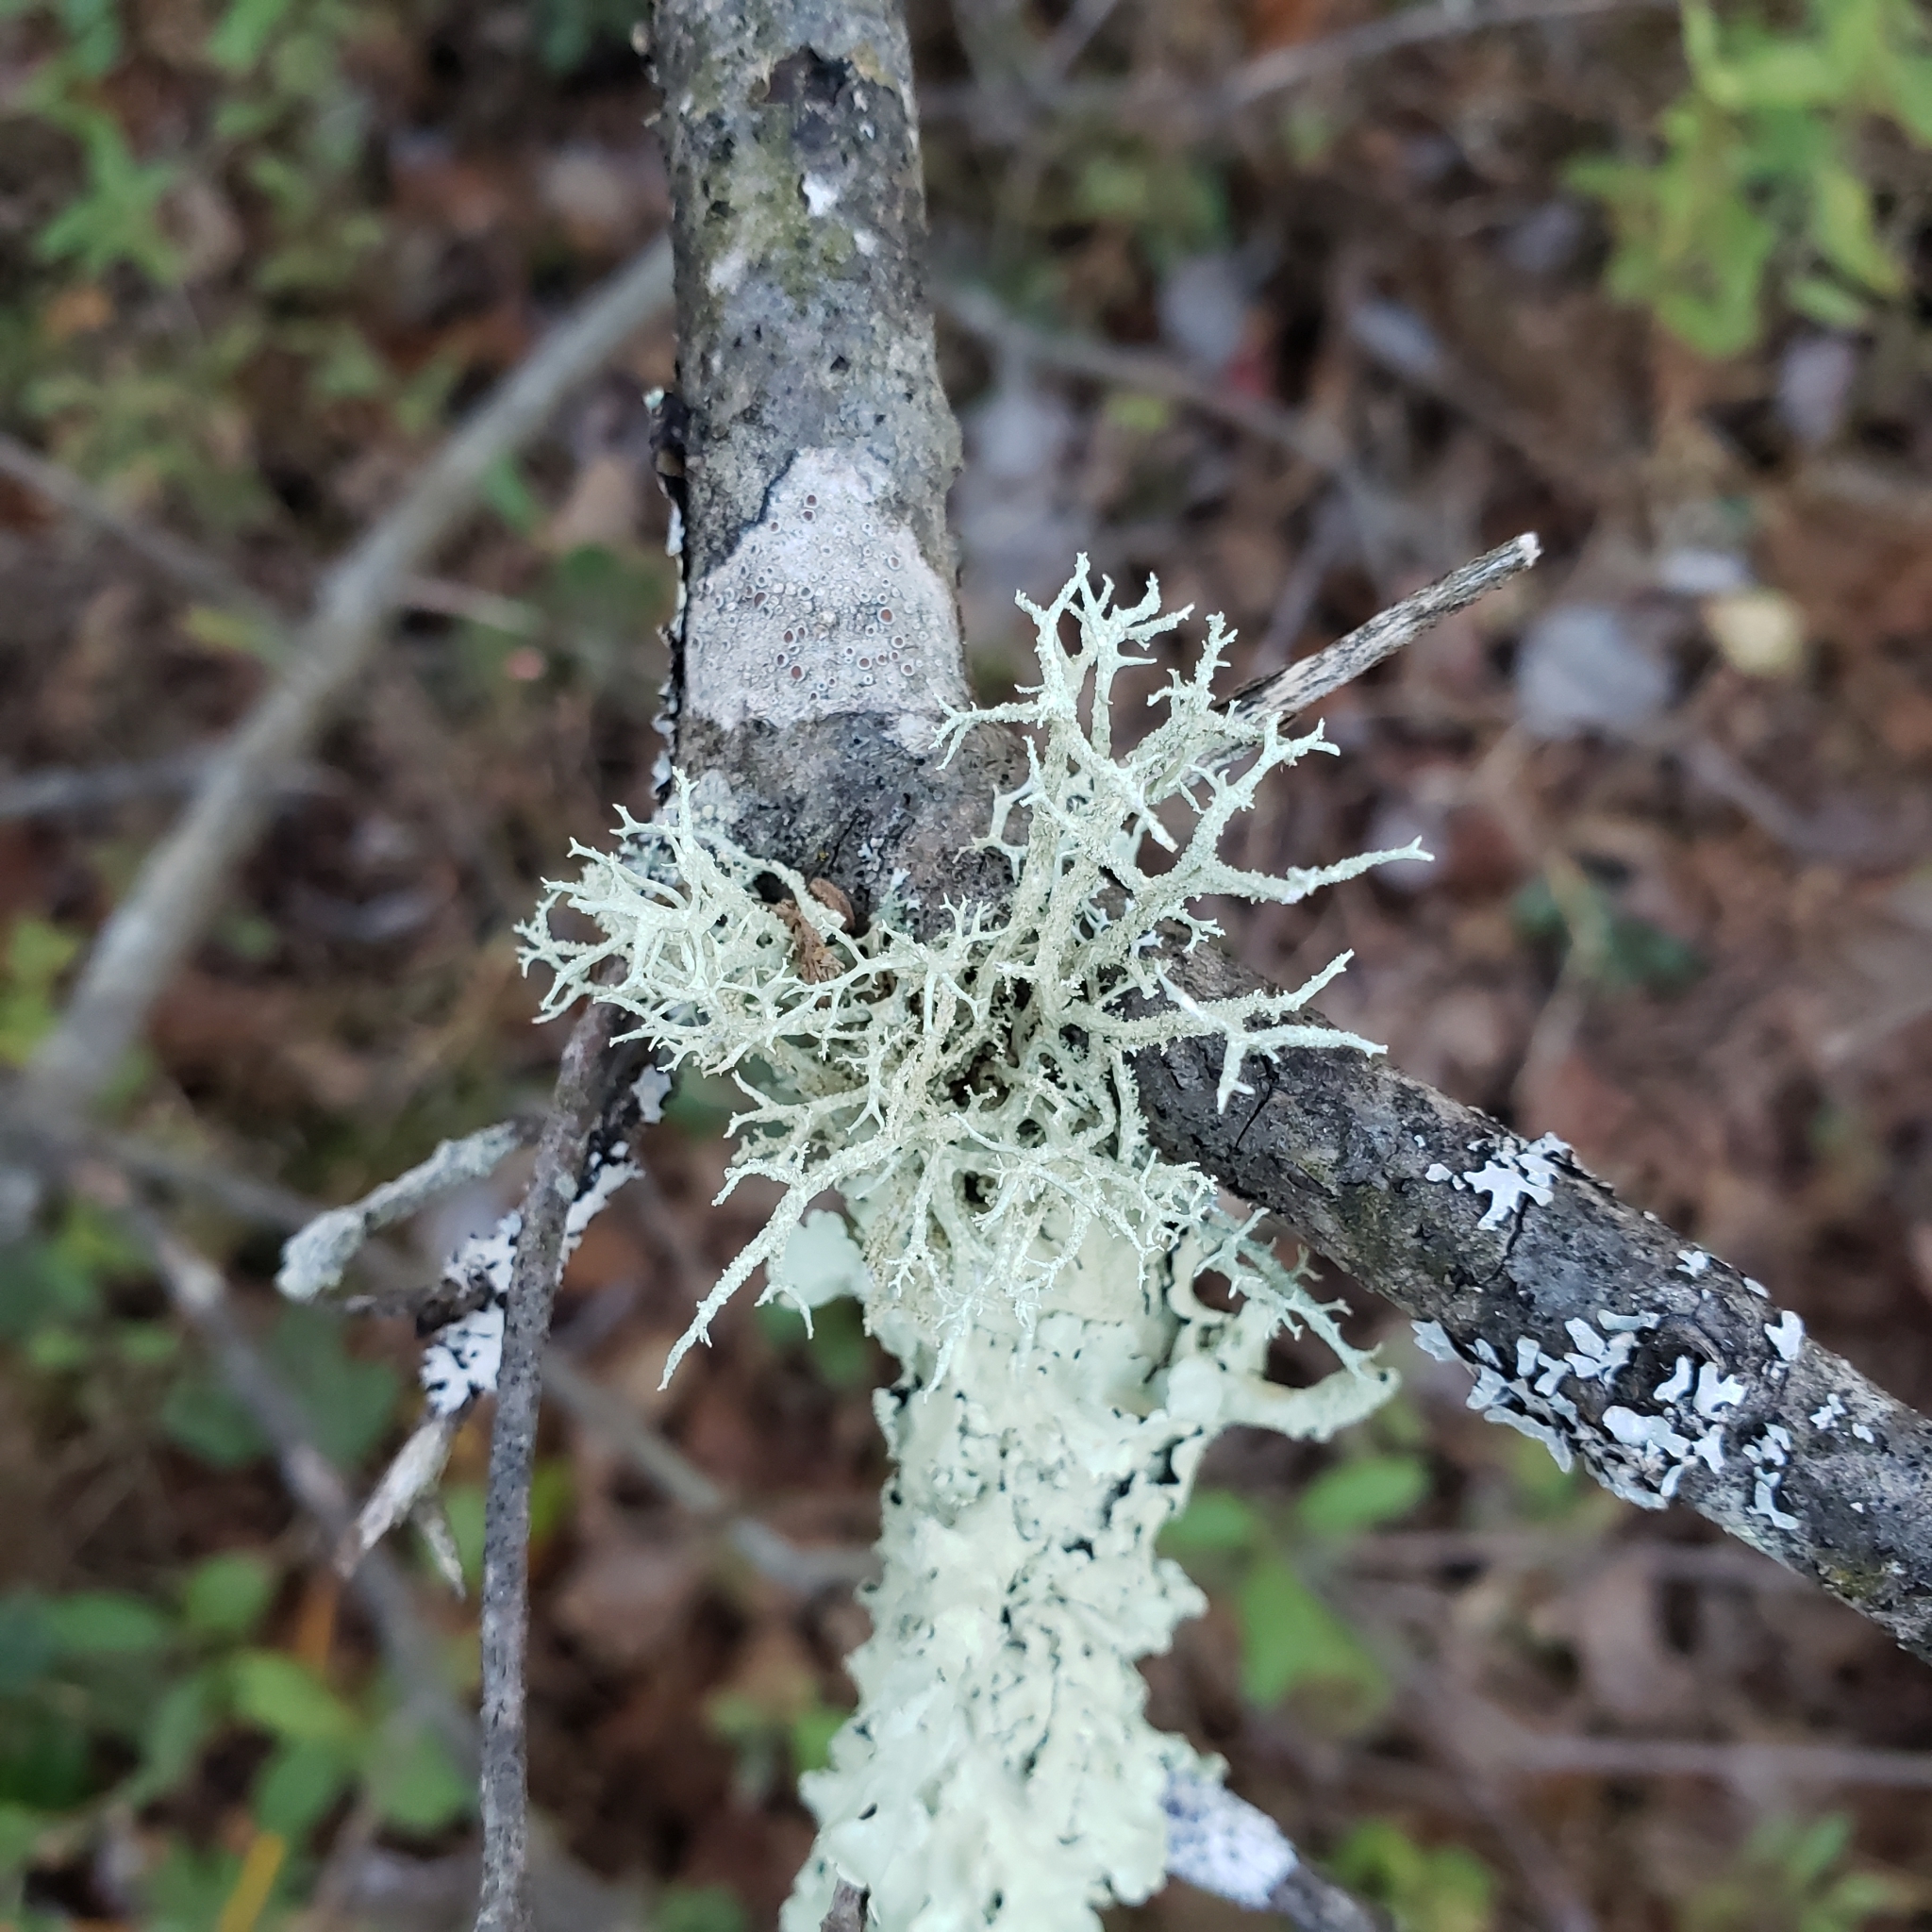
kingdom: Fungi
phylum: Ascomycota
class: Lecanoromycetes
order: Lecanorales
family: Parmeliaceae
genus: Evernia
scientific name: Evernia mesomorpha
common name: Boreal oak moss lichen
